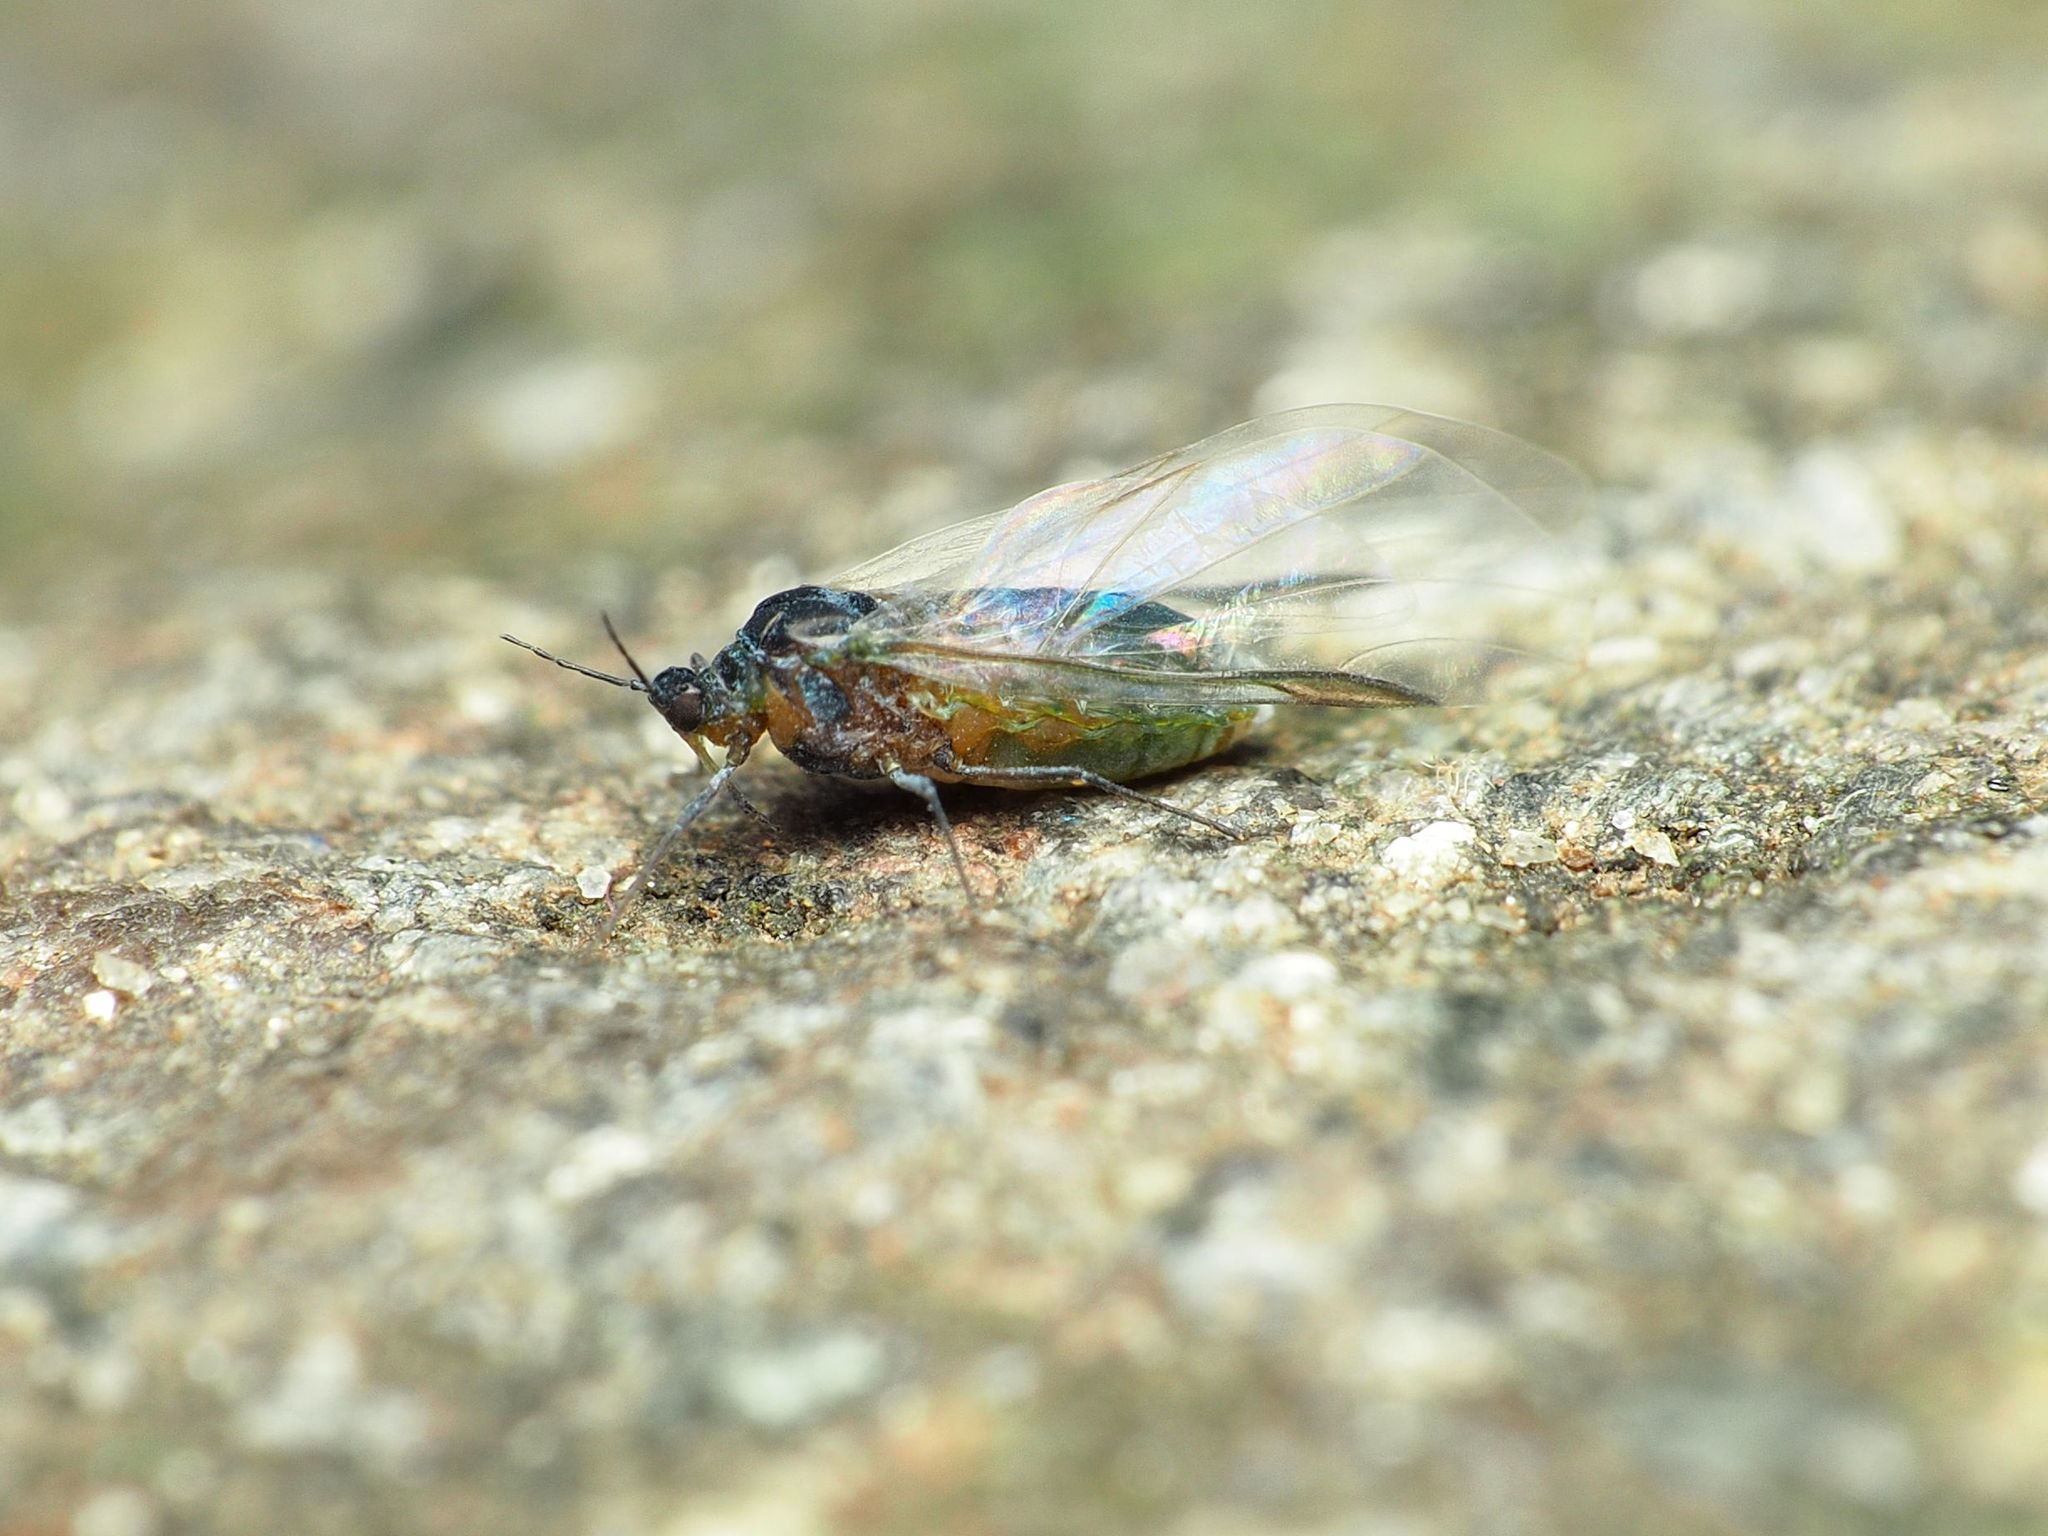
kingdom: Animalia
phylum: Arthropoda
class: Insecta
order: Hemiptera
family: Aphididae
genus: Grylloprociphilus
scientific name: Grylloprociphilus imbricator
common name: Beech blight aphid
